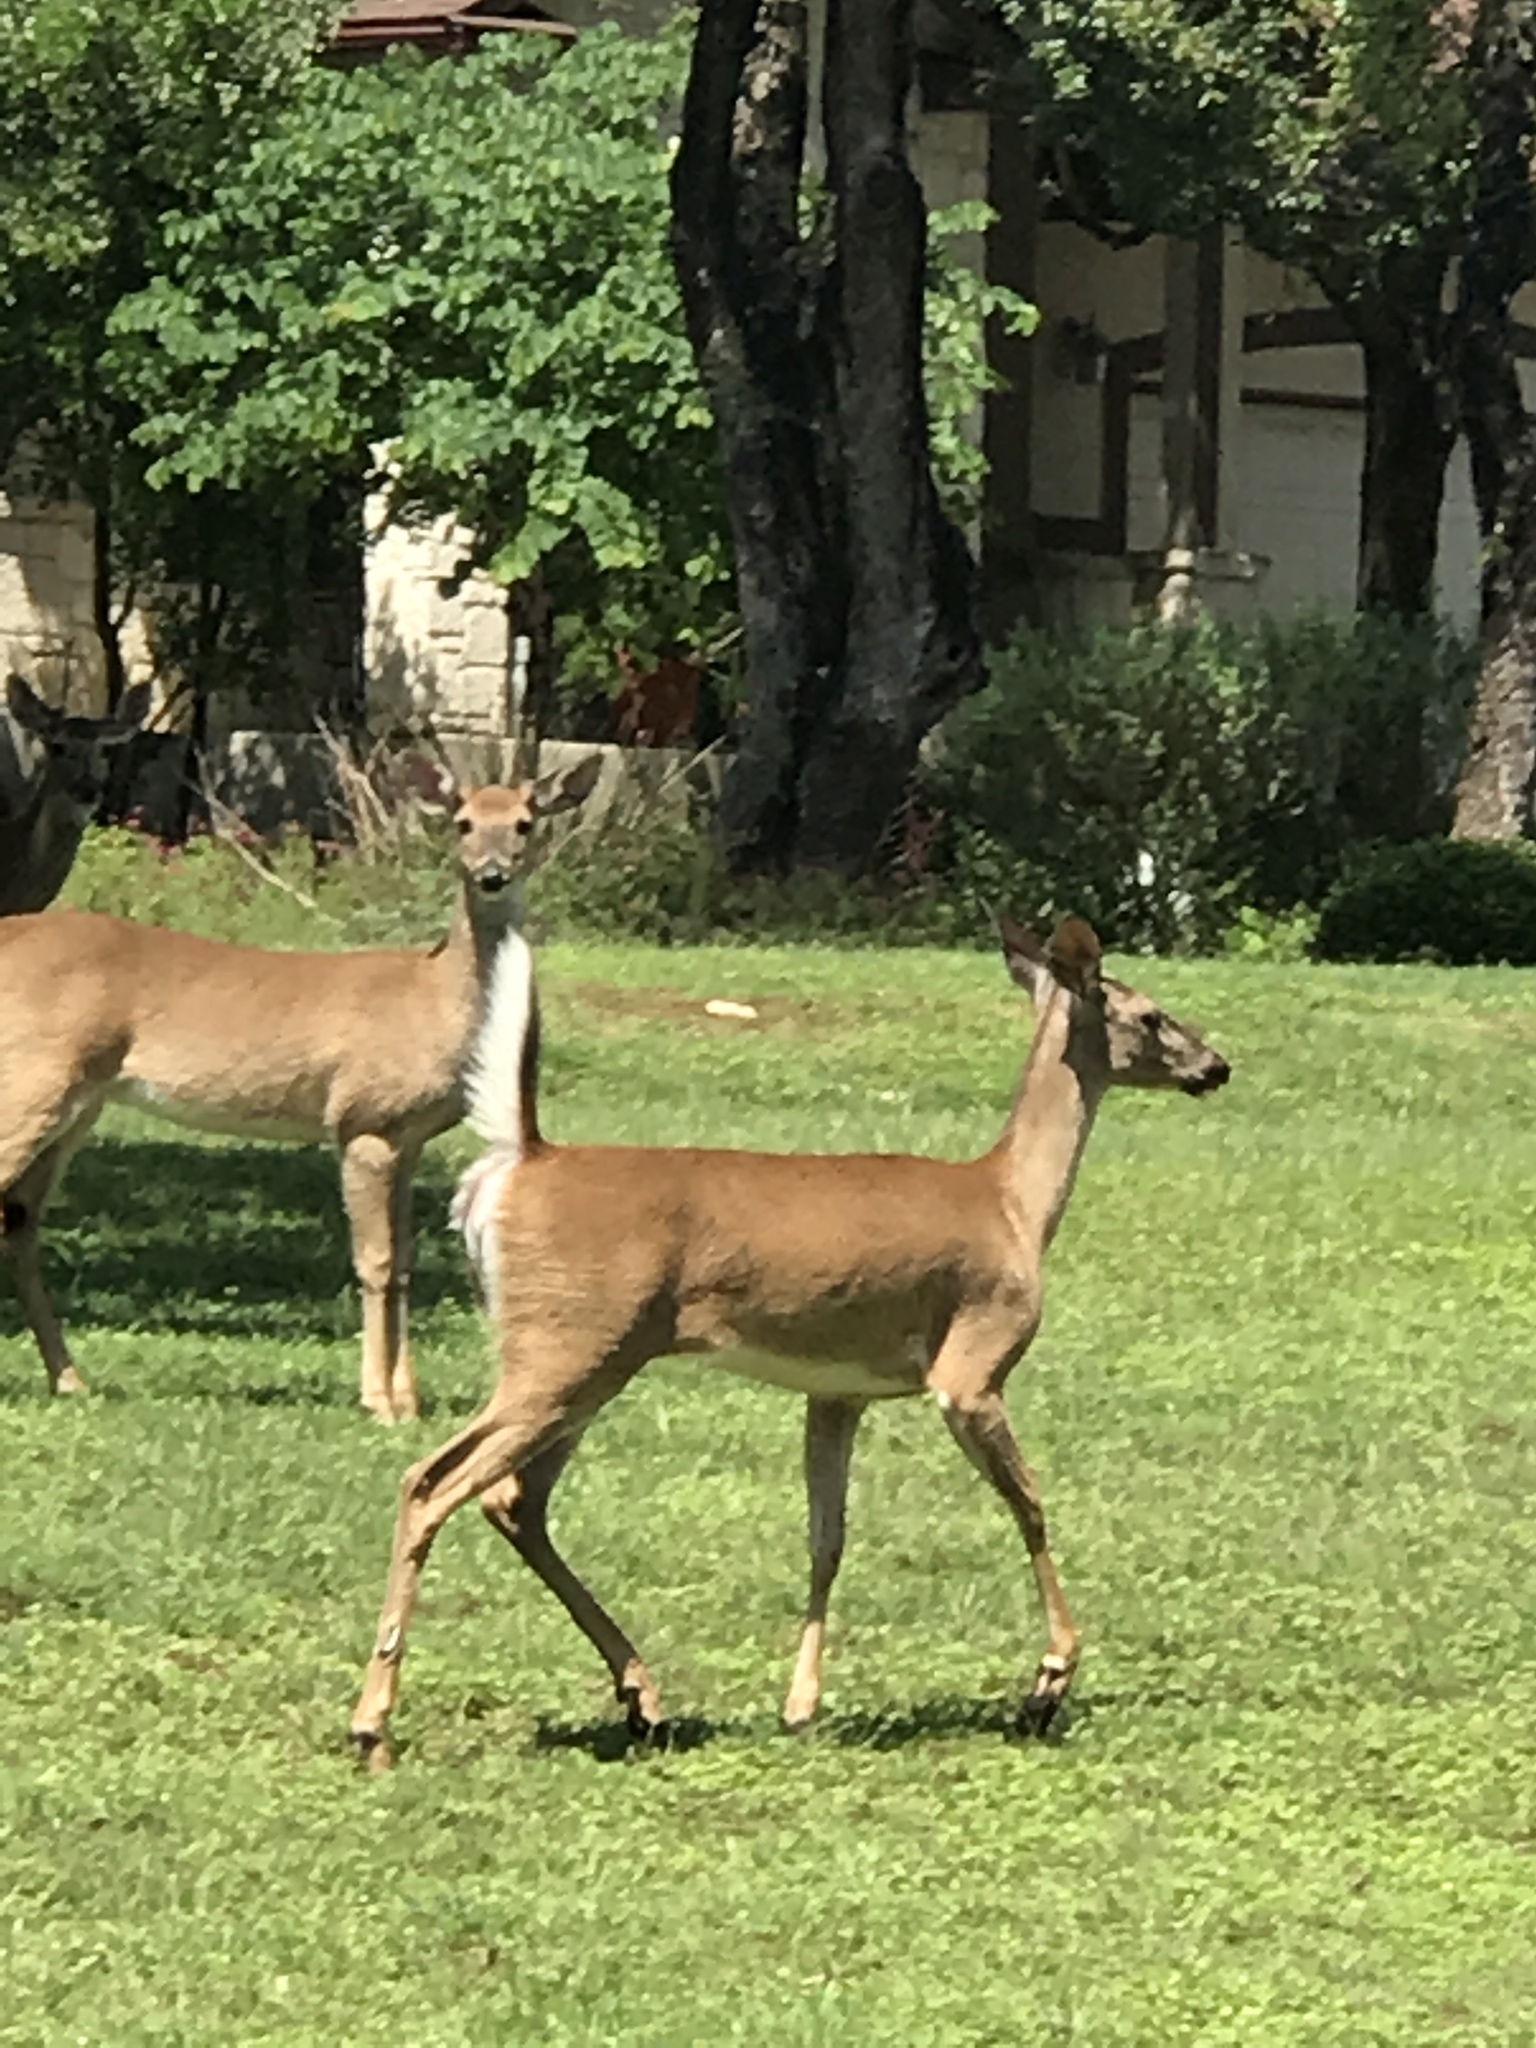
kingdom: Animalia
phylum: Chordata
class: Mammalia
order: Artiodactyla
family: Cervidae
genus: Odocoileus
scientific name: Odocoileus virginianus
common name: White-tailed deer
